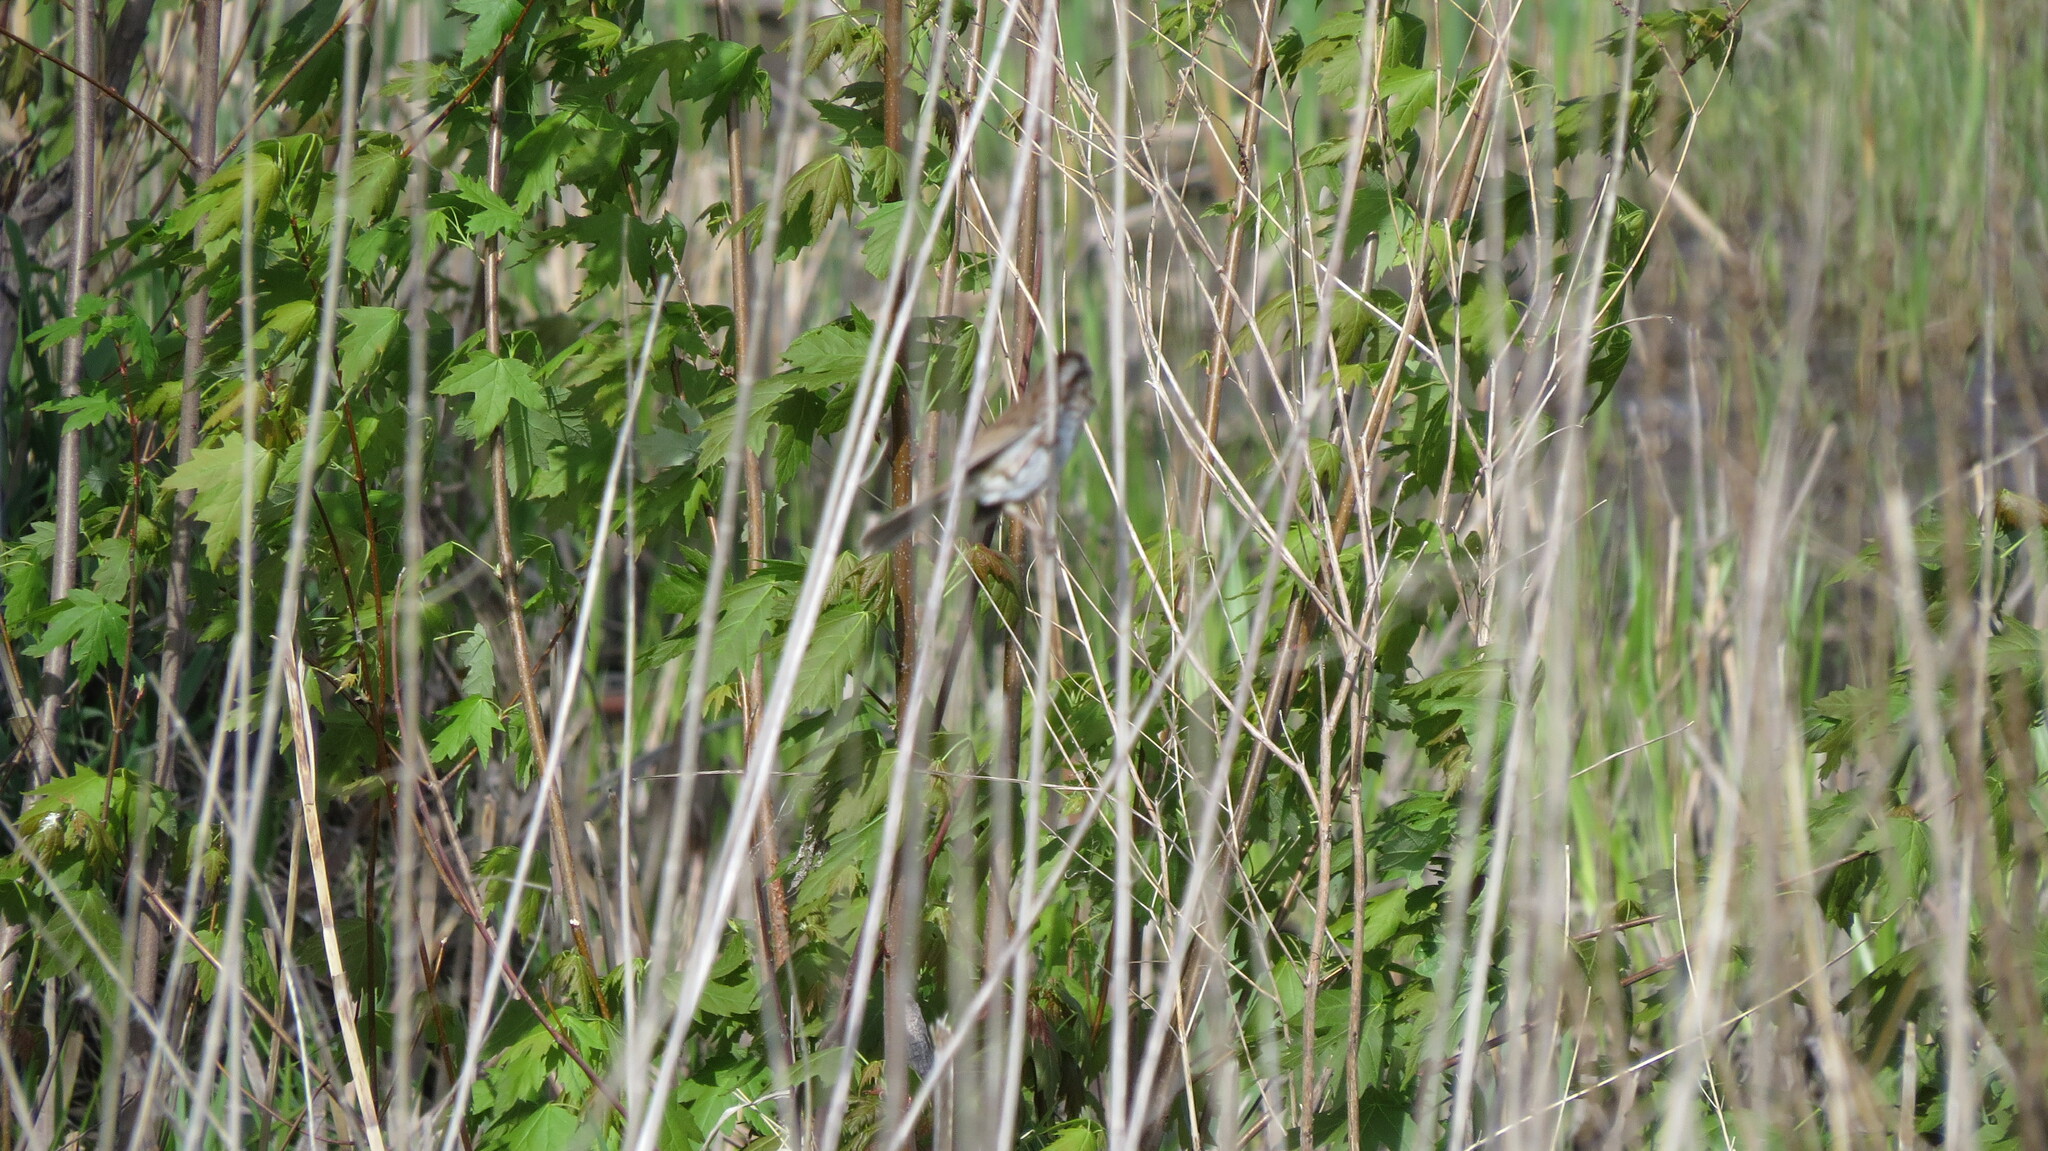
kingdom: Animalia
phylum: Chordata
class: Aves
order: Passeriformes
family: Passerellidae
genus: Melospiza
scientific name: Melospiza melodia
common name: Song sparrow
